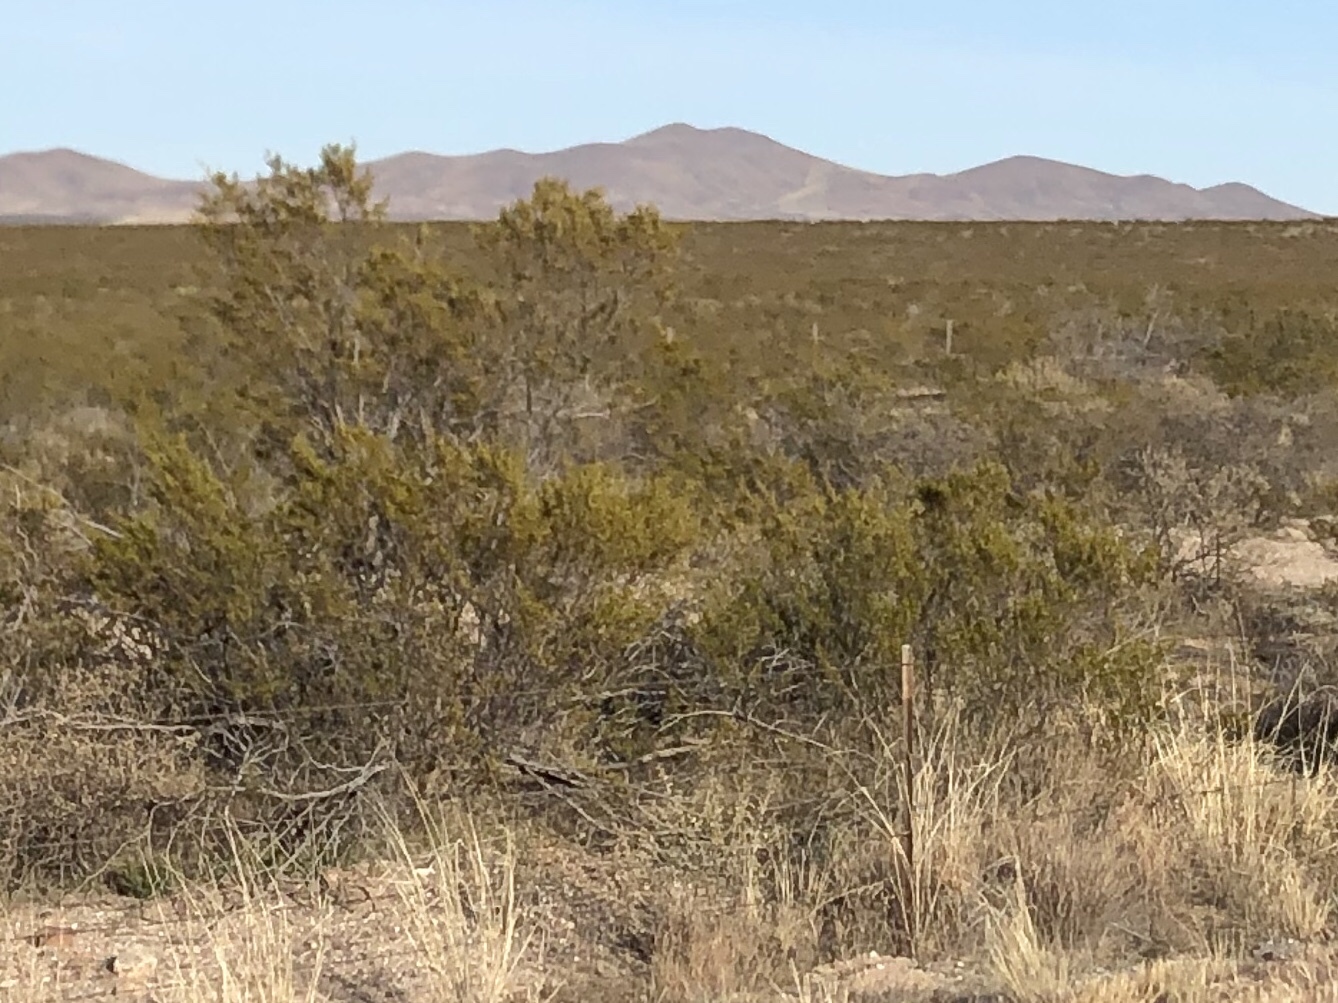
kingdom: Plantae
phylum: Tracheophyta
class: Magnoliopsida
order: Zygophyllales
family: Zygophyllaceae
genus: Larrea
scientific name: Larrea tridentata
